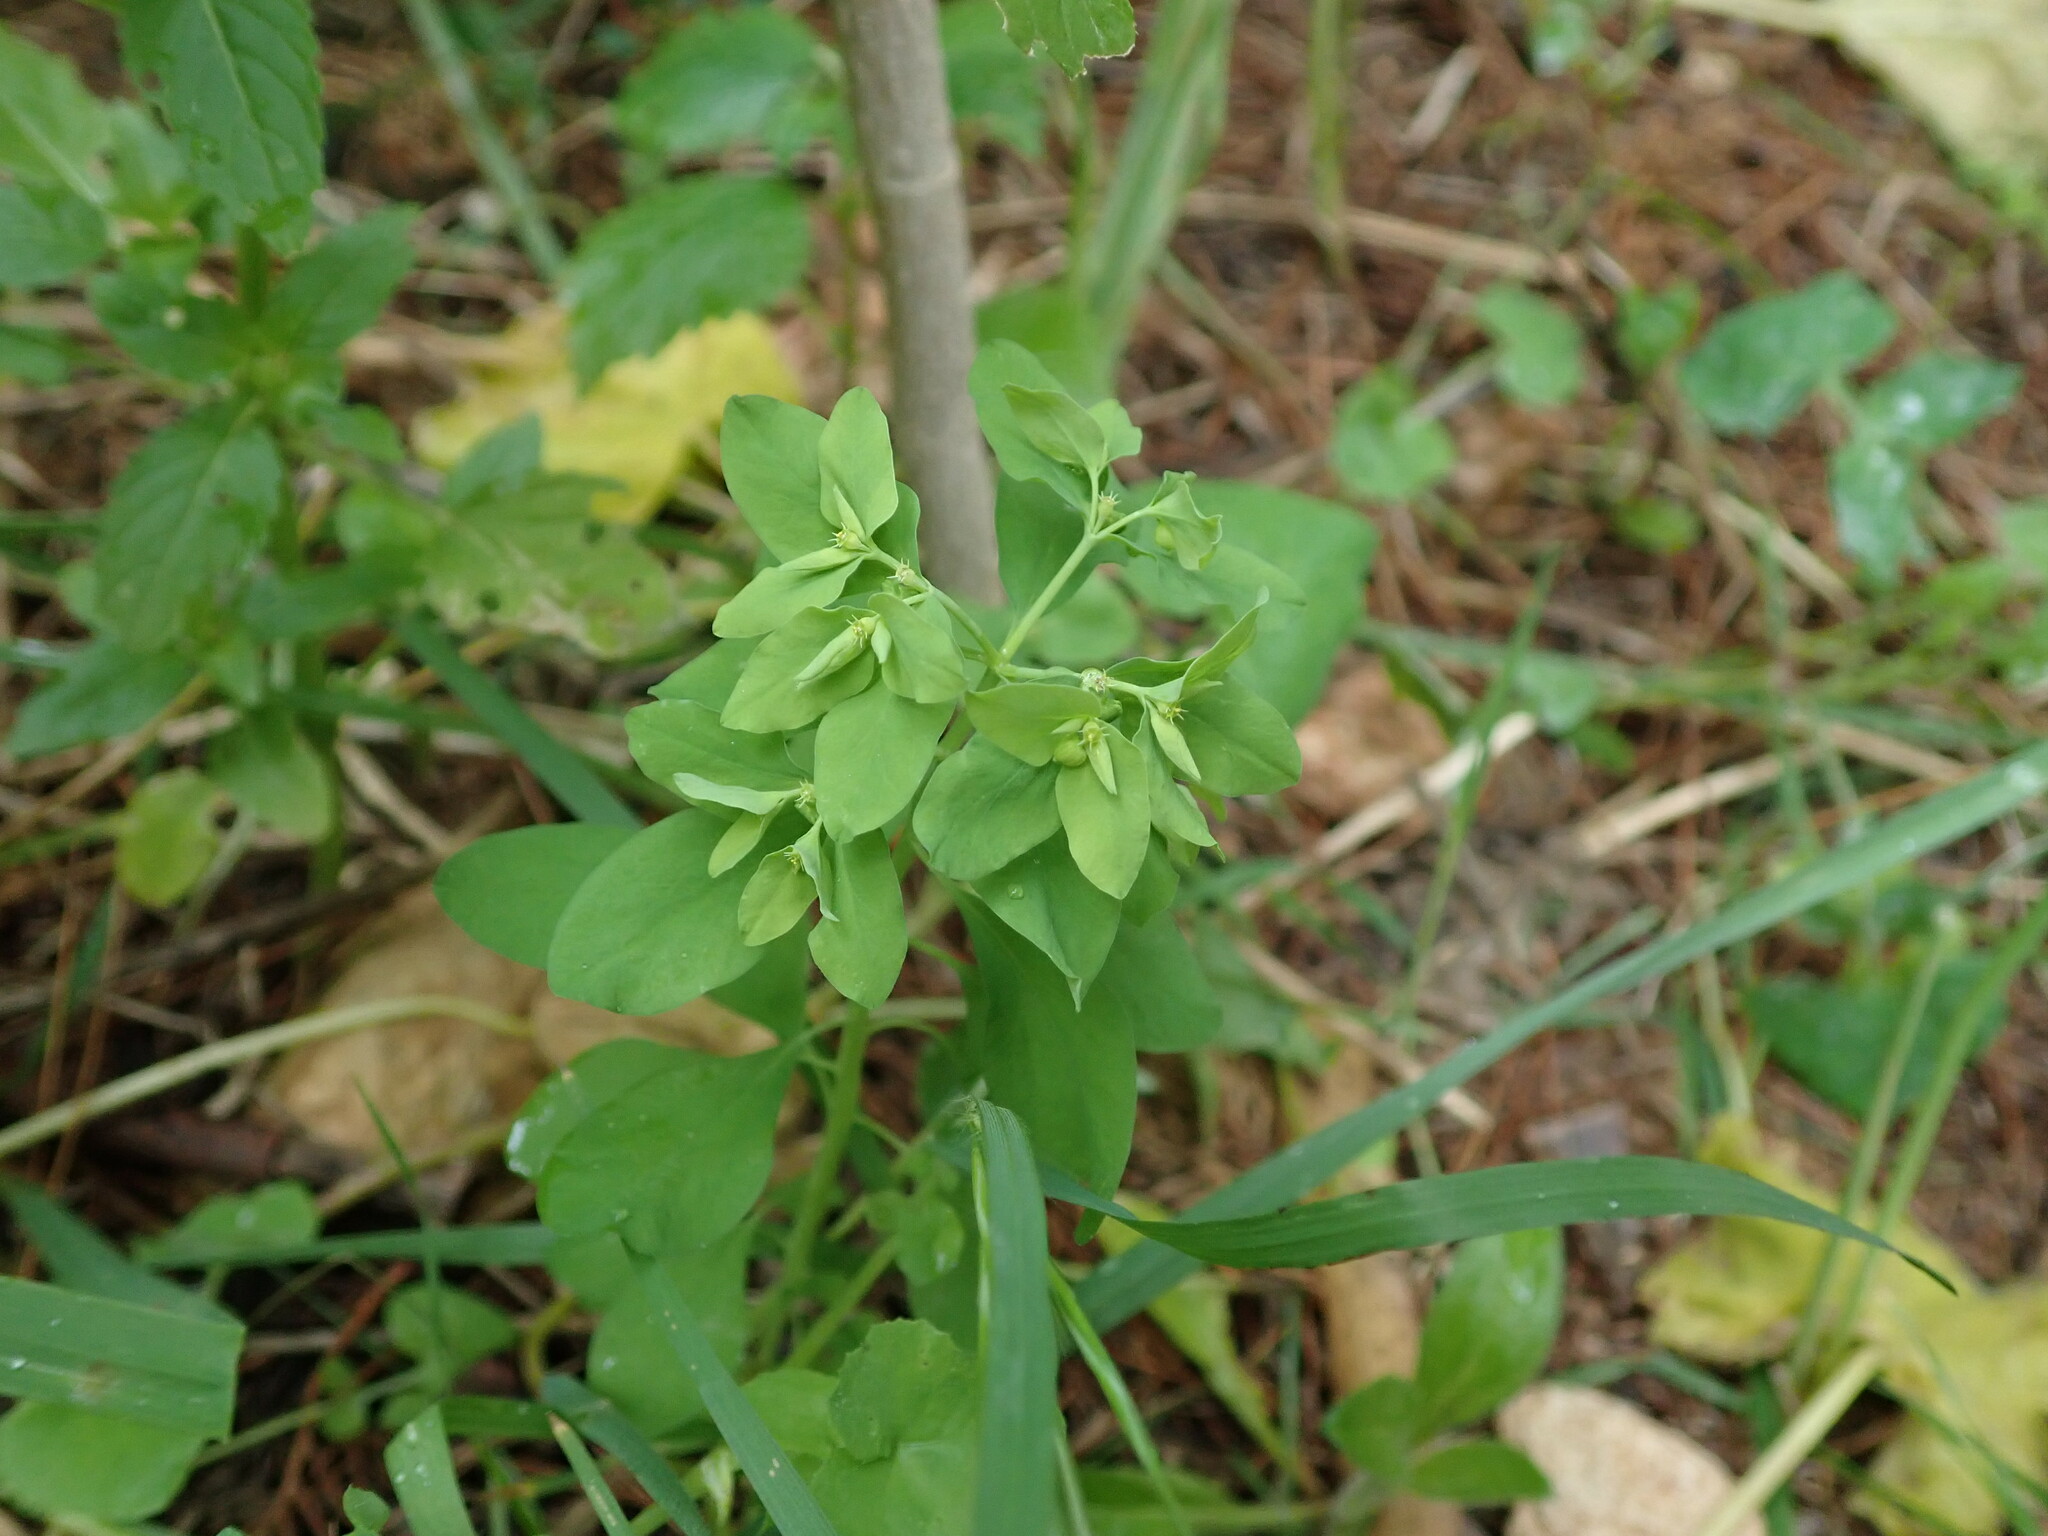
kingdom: Plantae
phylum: Tracheophyta
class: Magnoliopsida
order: Malpighiales
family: Euphorbiaceae
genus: Euphorbia
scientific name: Euphorbia peplus
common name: Petty spurge
